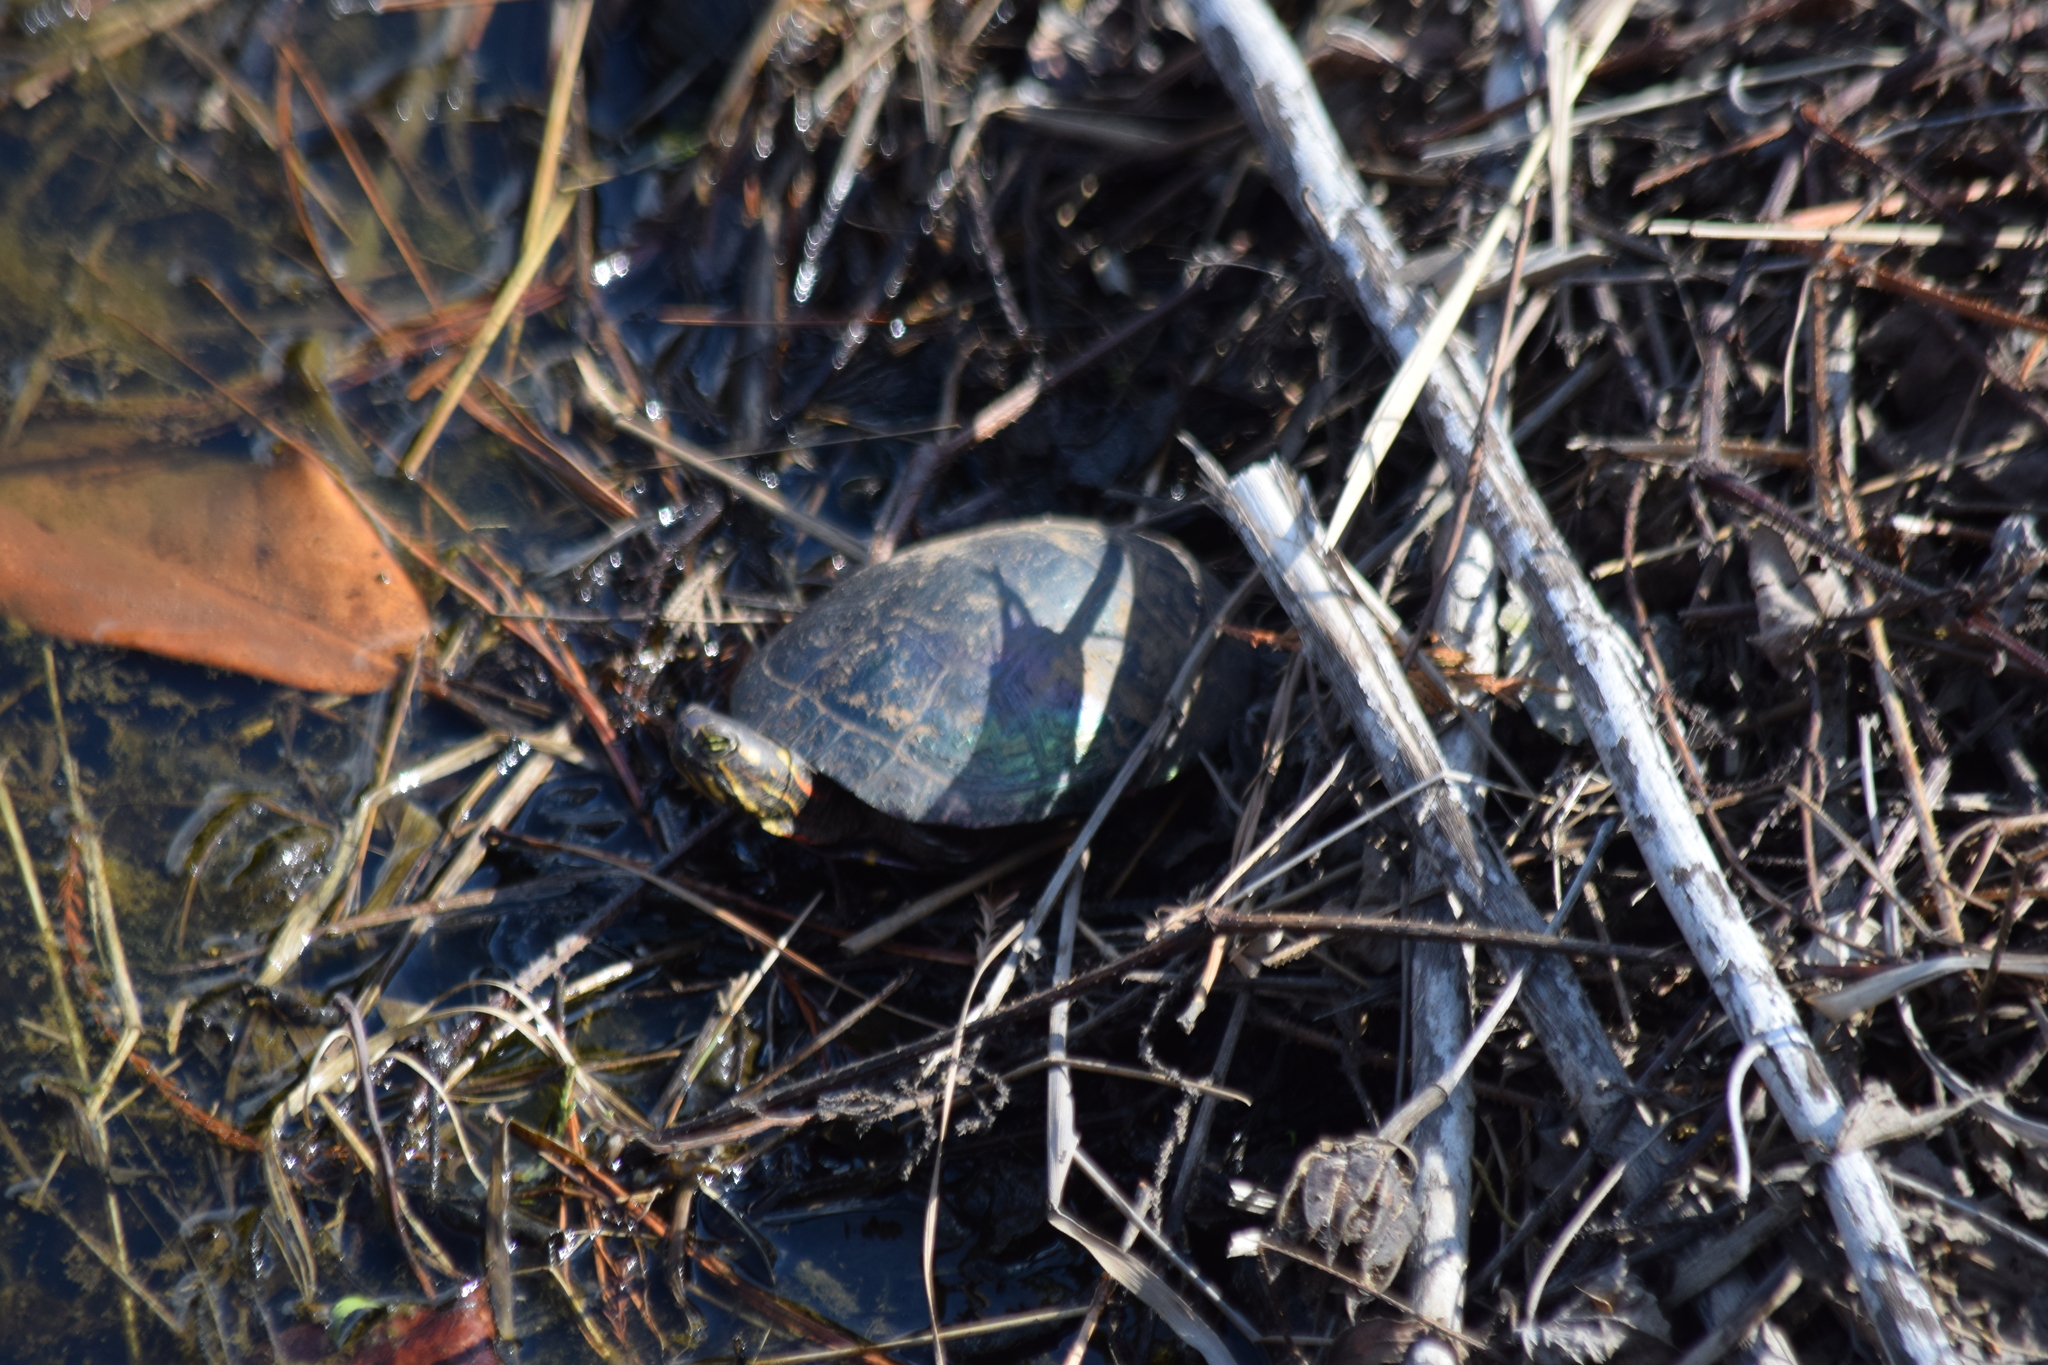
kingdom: Animalia
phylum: Chordata
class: Testudines
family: Emydidae
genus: Chrysemys
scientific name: Chrysemys picta
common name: Painted turtle
